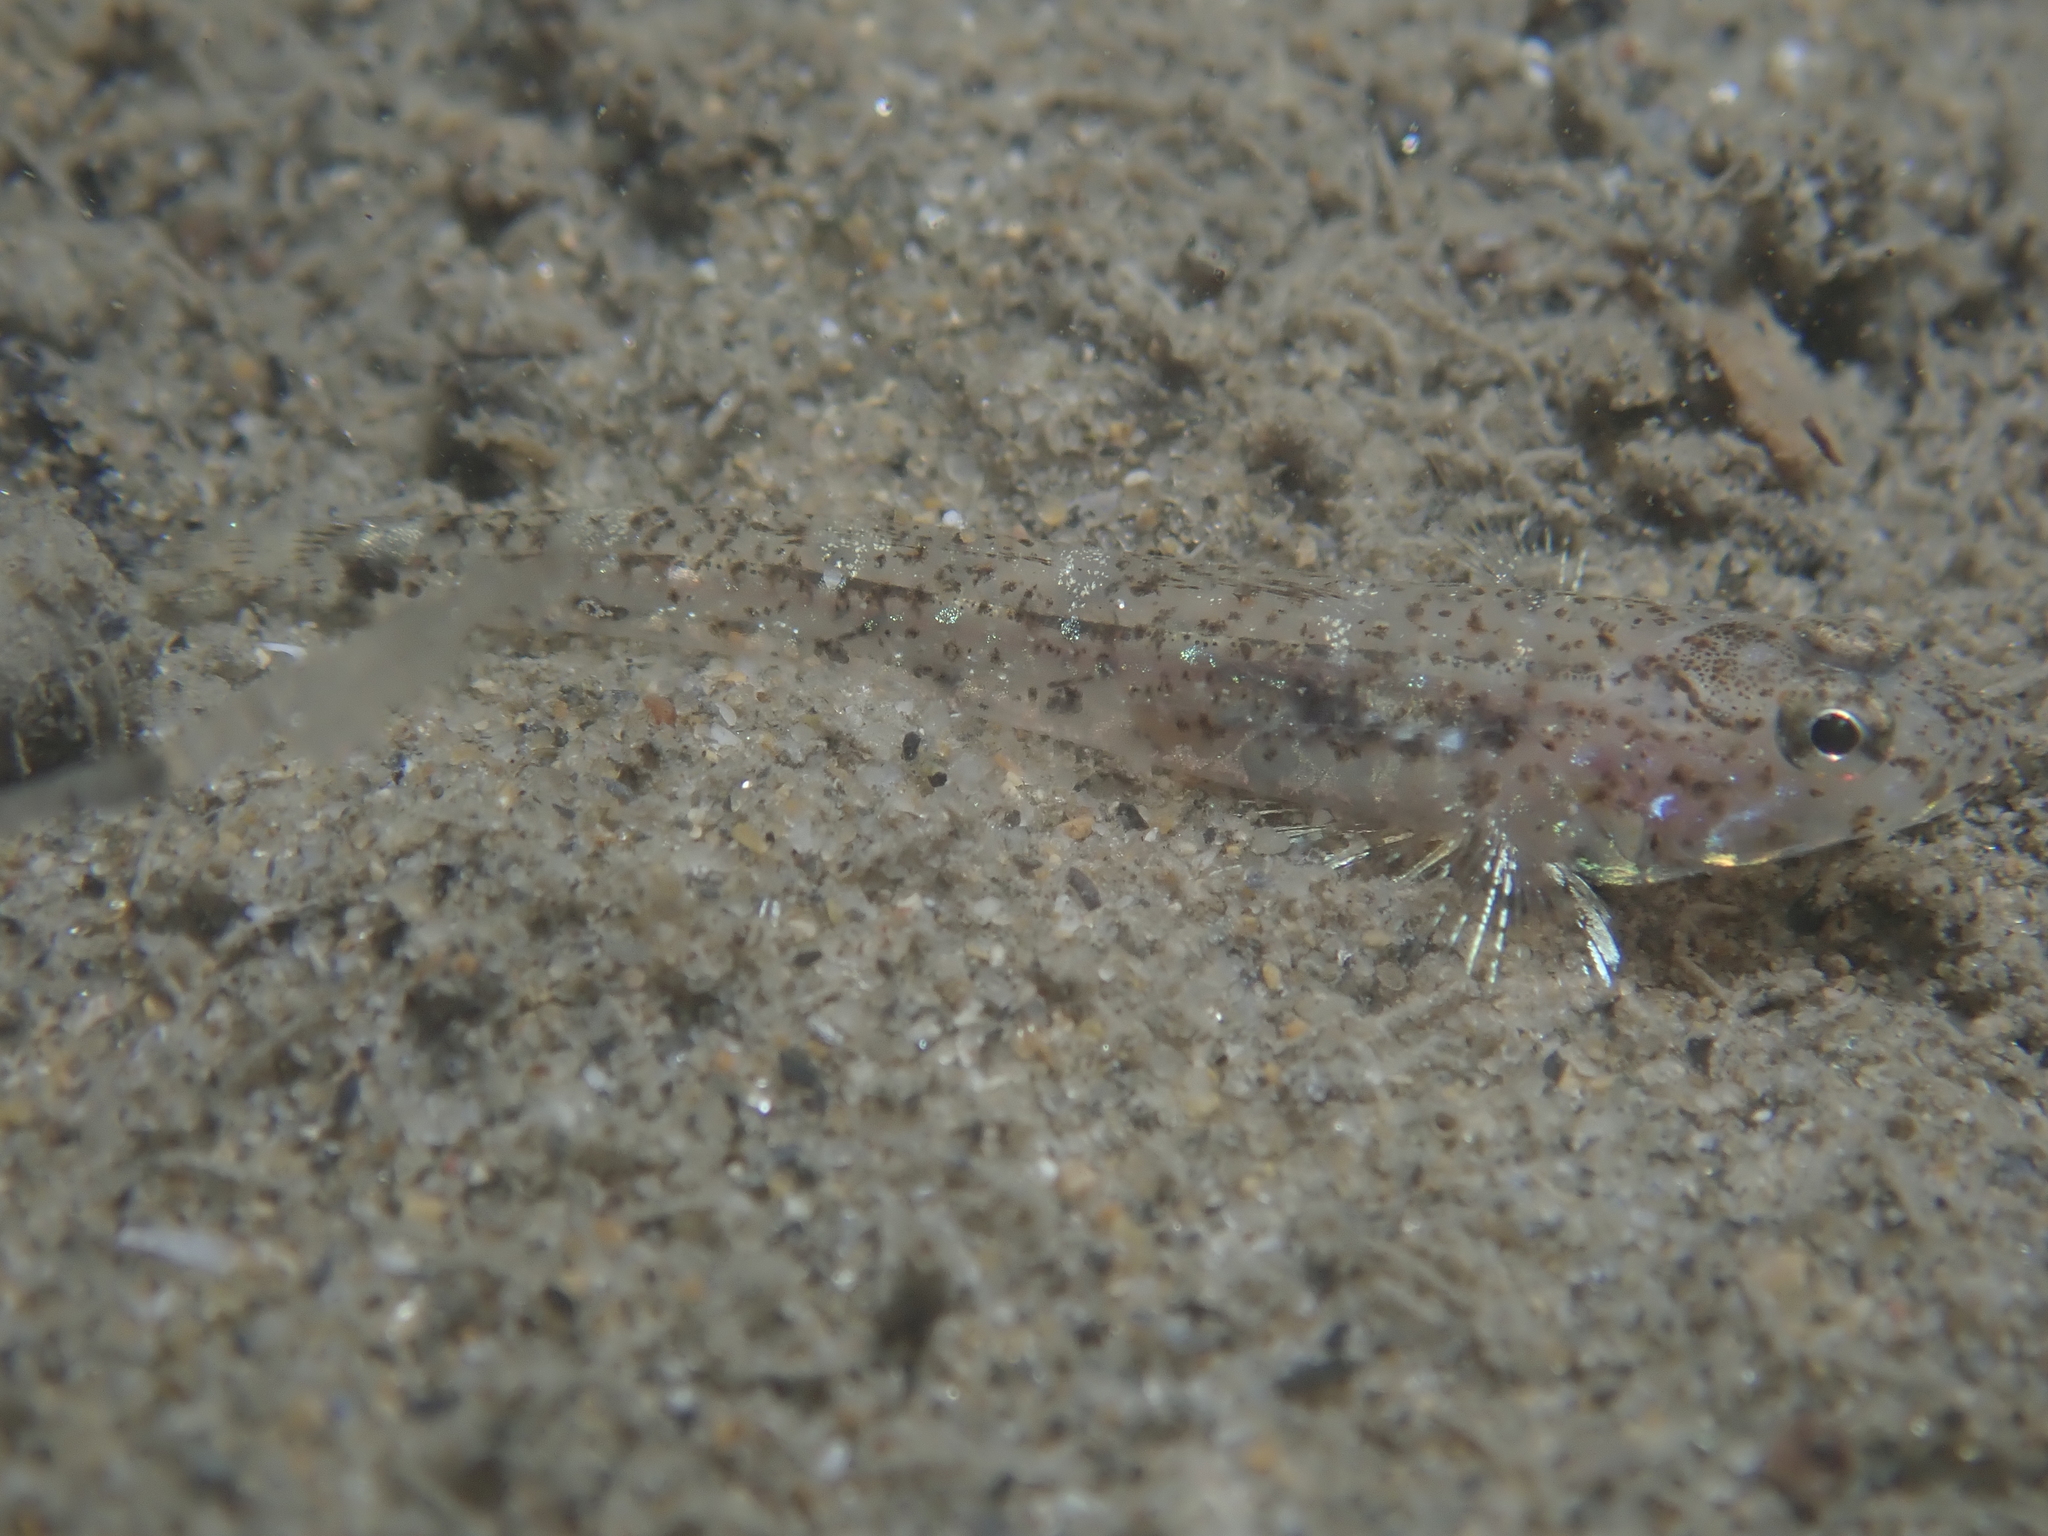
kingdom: Animalia
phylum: Chordata
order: Perciformes
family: Gobiidae
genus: Pomatoschistus
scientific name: Pomatoschistus marmoratus
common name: Marbled goby
